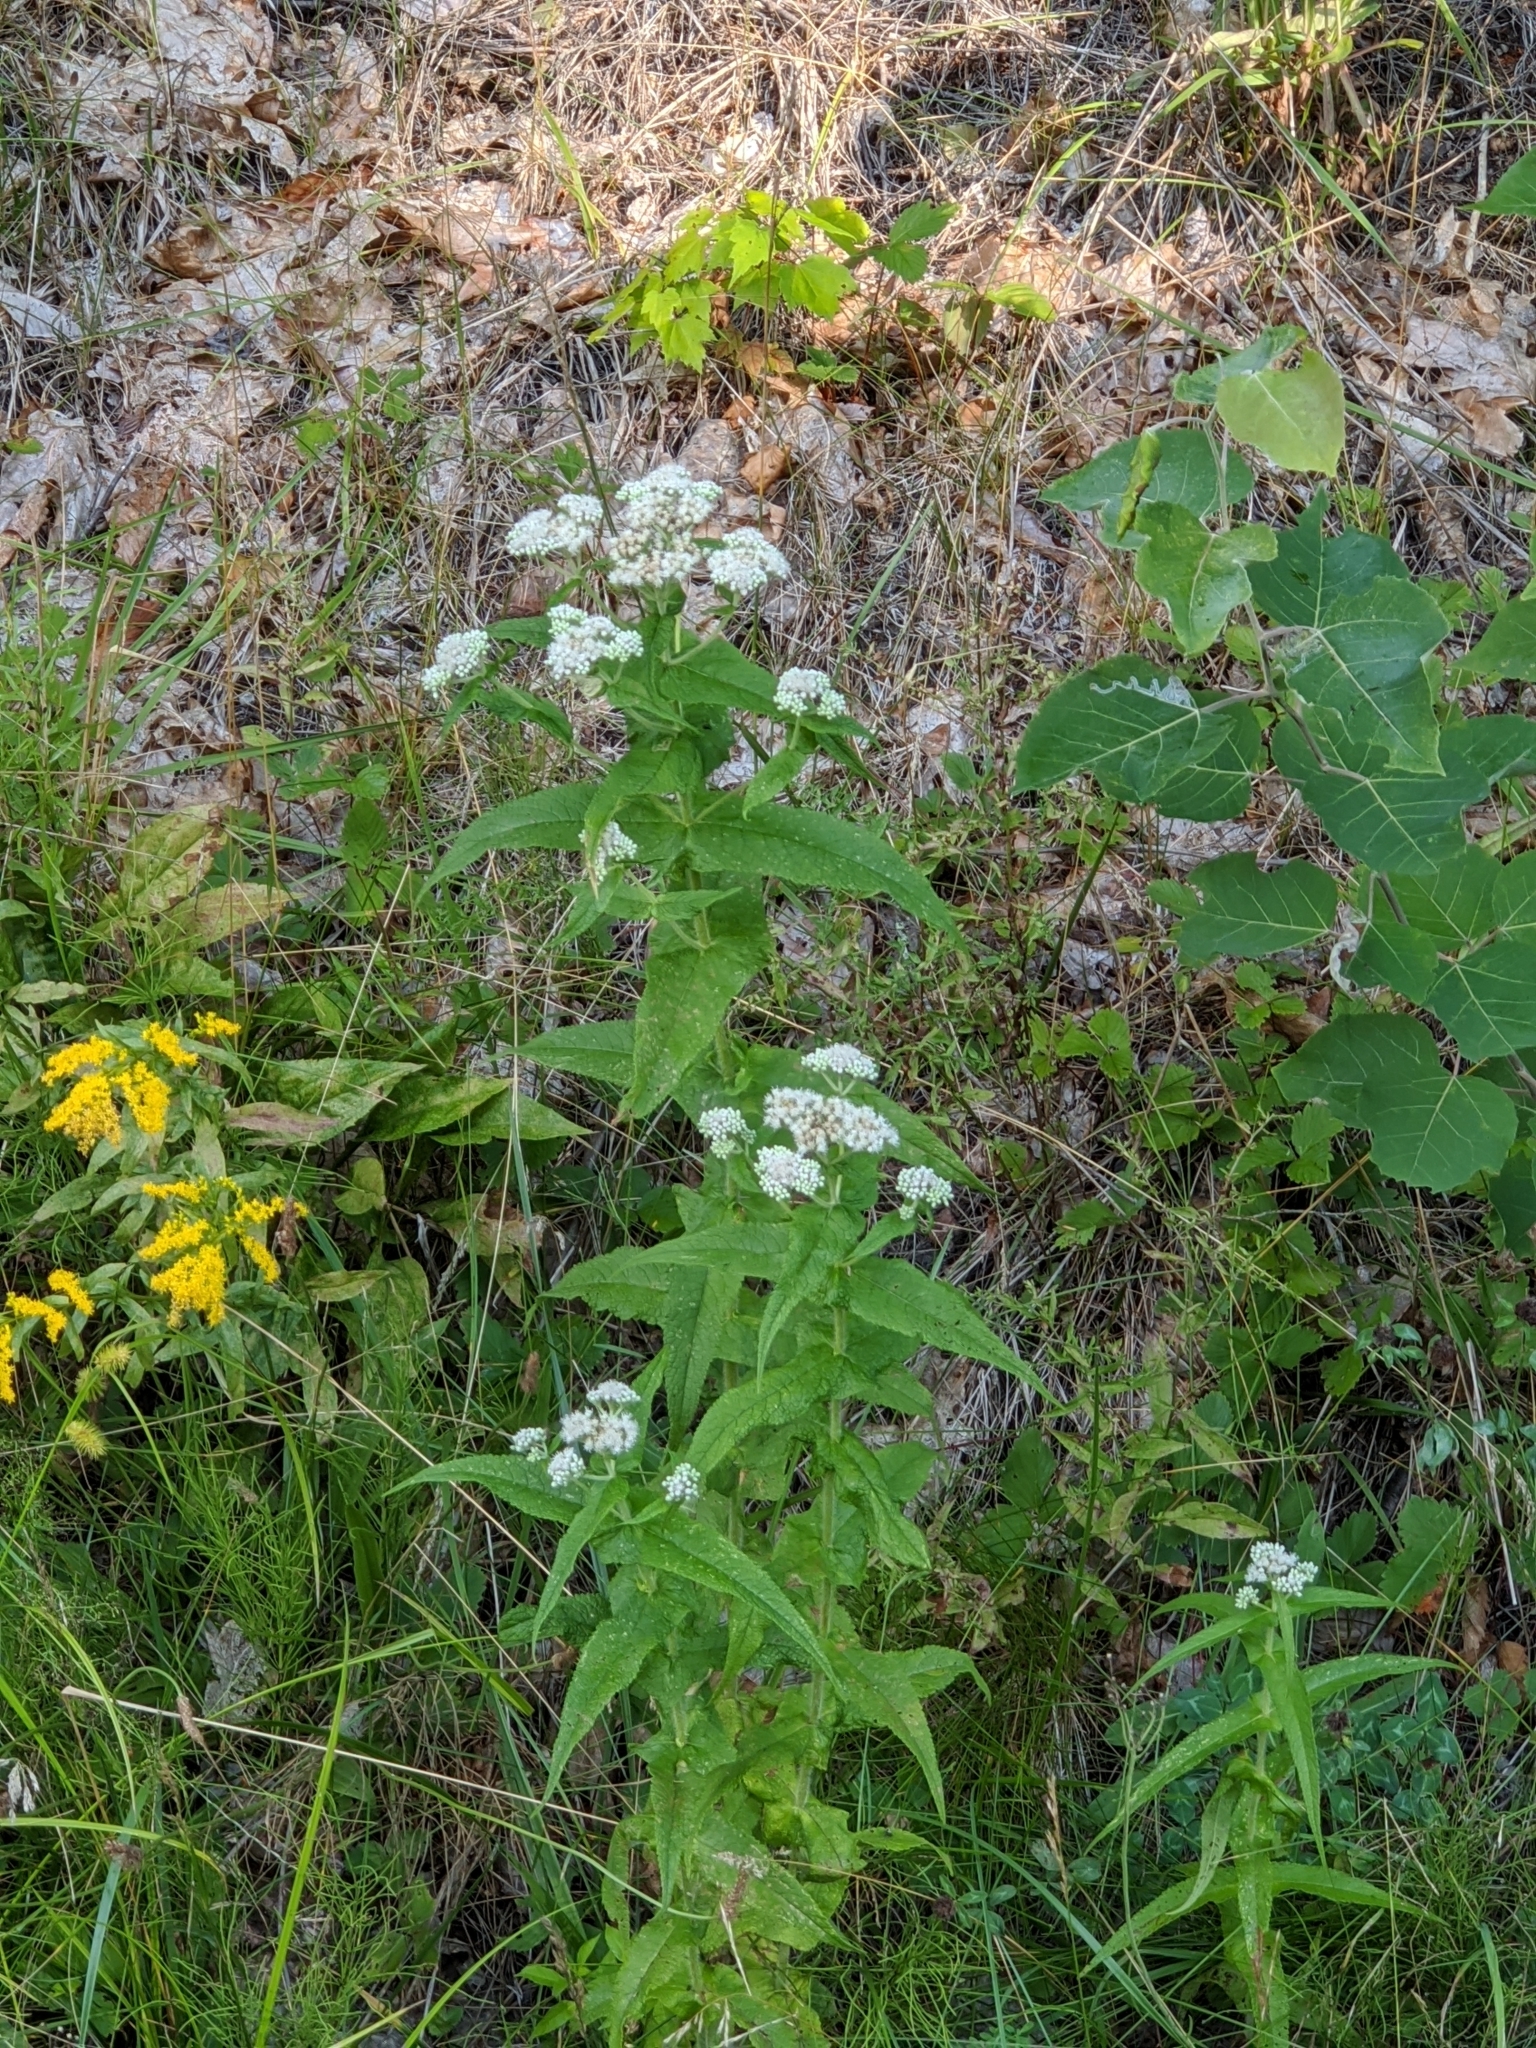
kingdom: Plantae
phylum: Tracheophyta
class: Magnoliopsida
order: Asterales
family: Asteraceae
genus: Eupatorium
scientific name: Eupatorium perfoliatum
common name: Boneset
